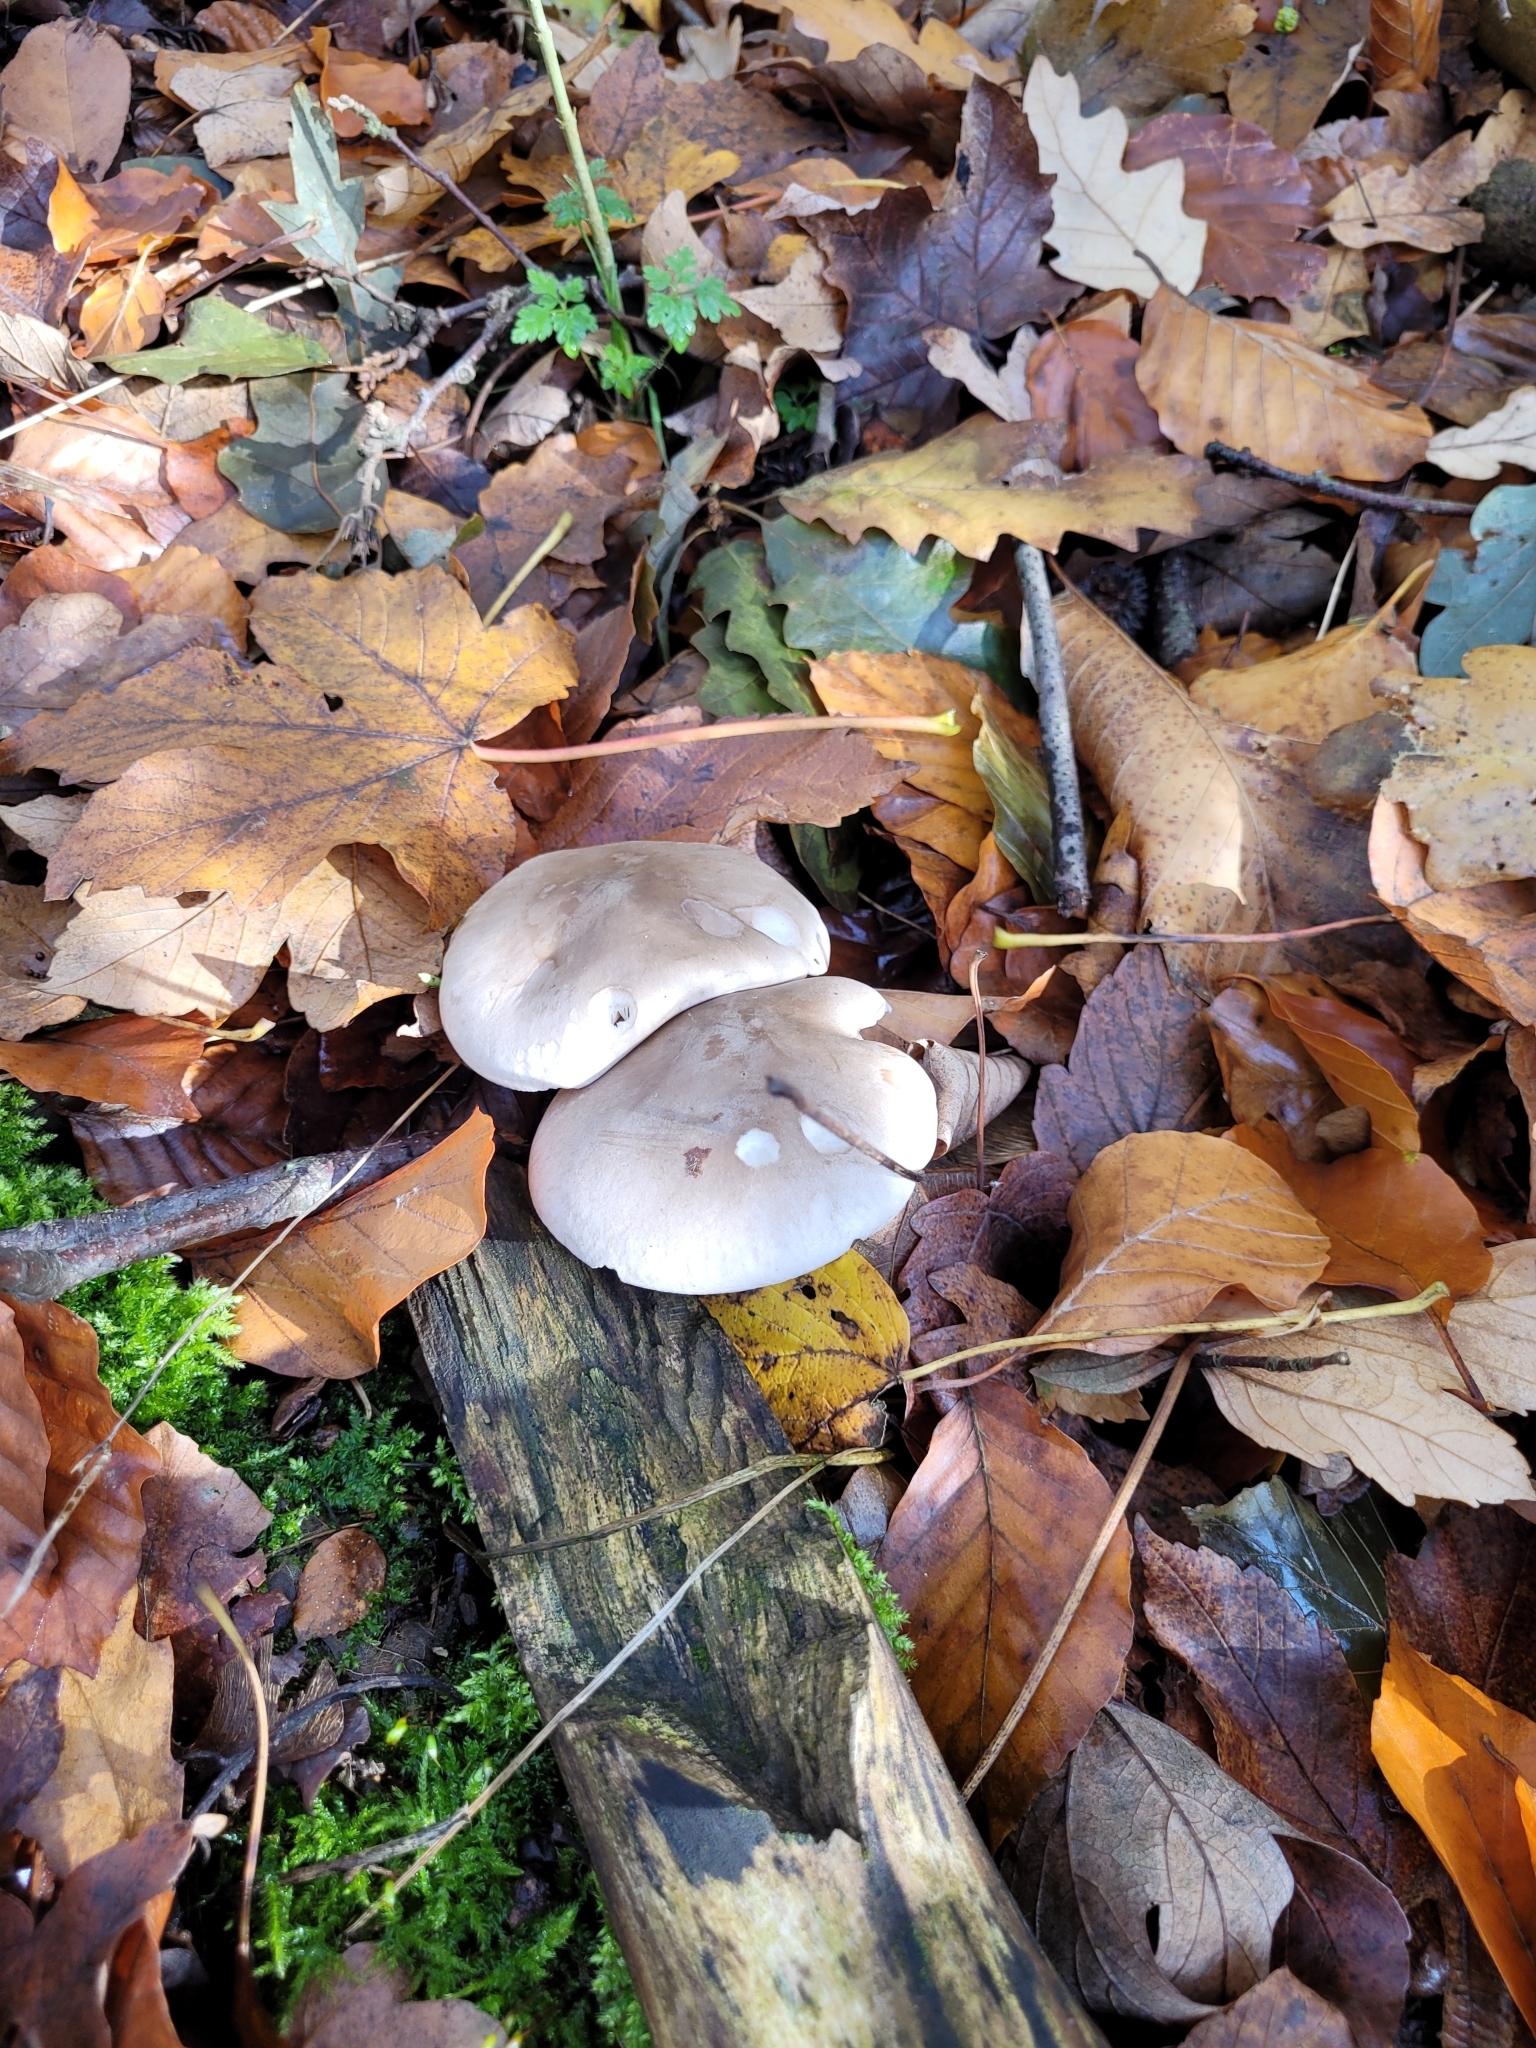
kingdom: Fungi
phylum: Basidiomycota
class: Agaricomycetes
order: Agaricales
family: Tricholomataceae
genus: Clitocybe
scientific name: Clitocybe nebularis
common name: Clouded agaric
